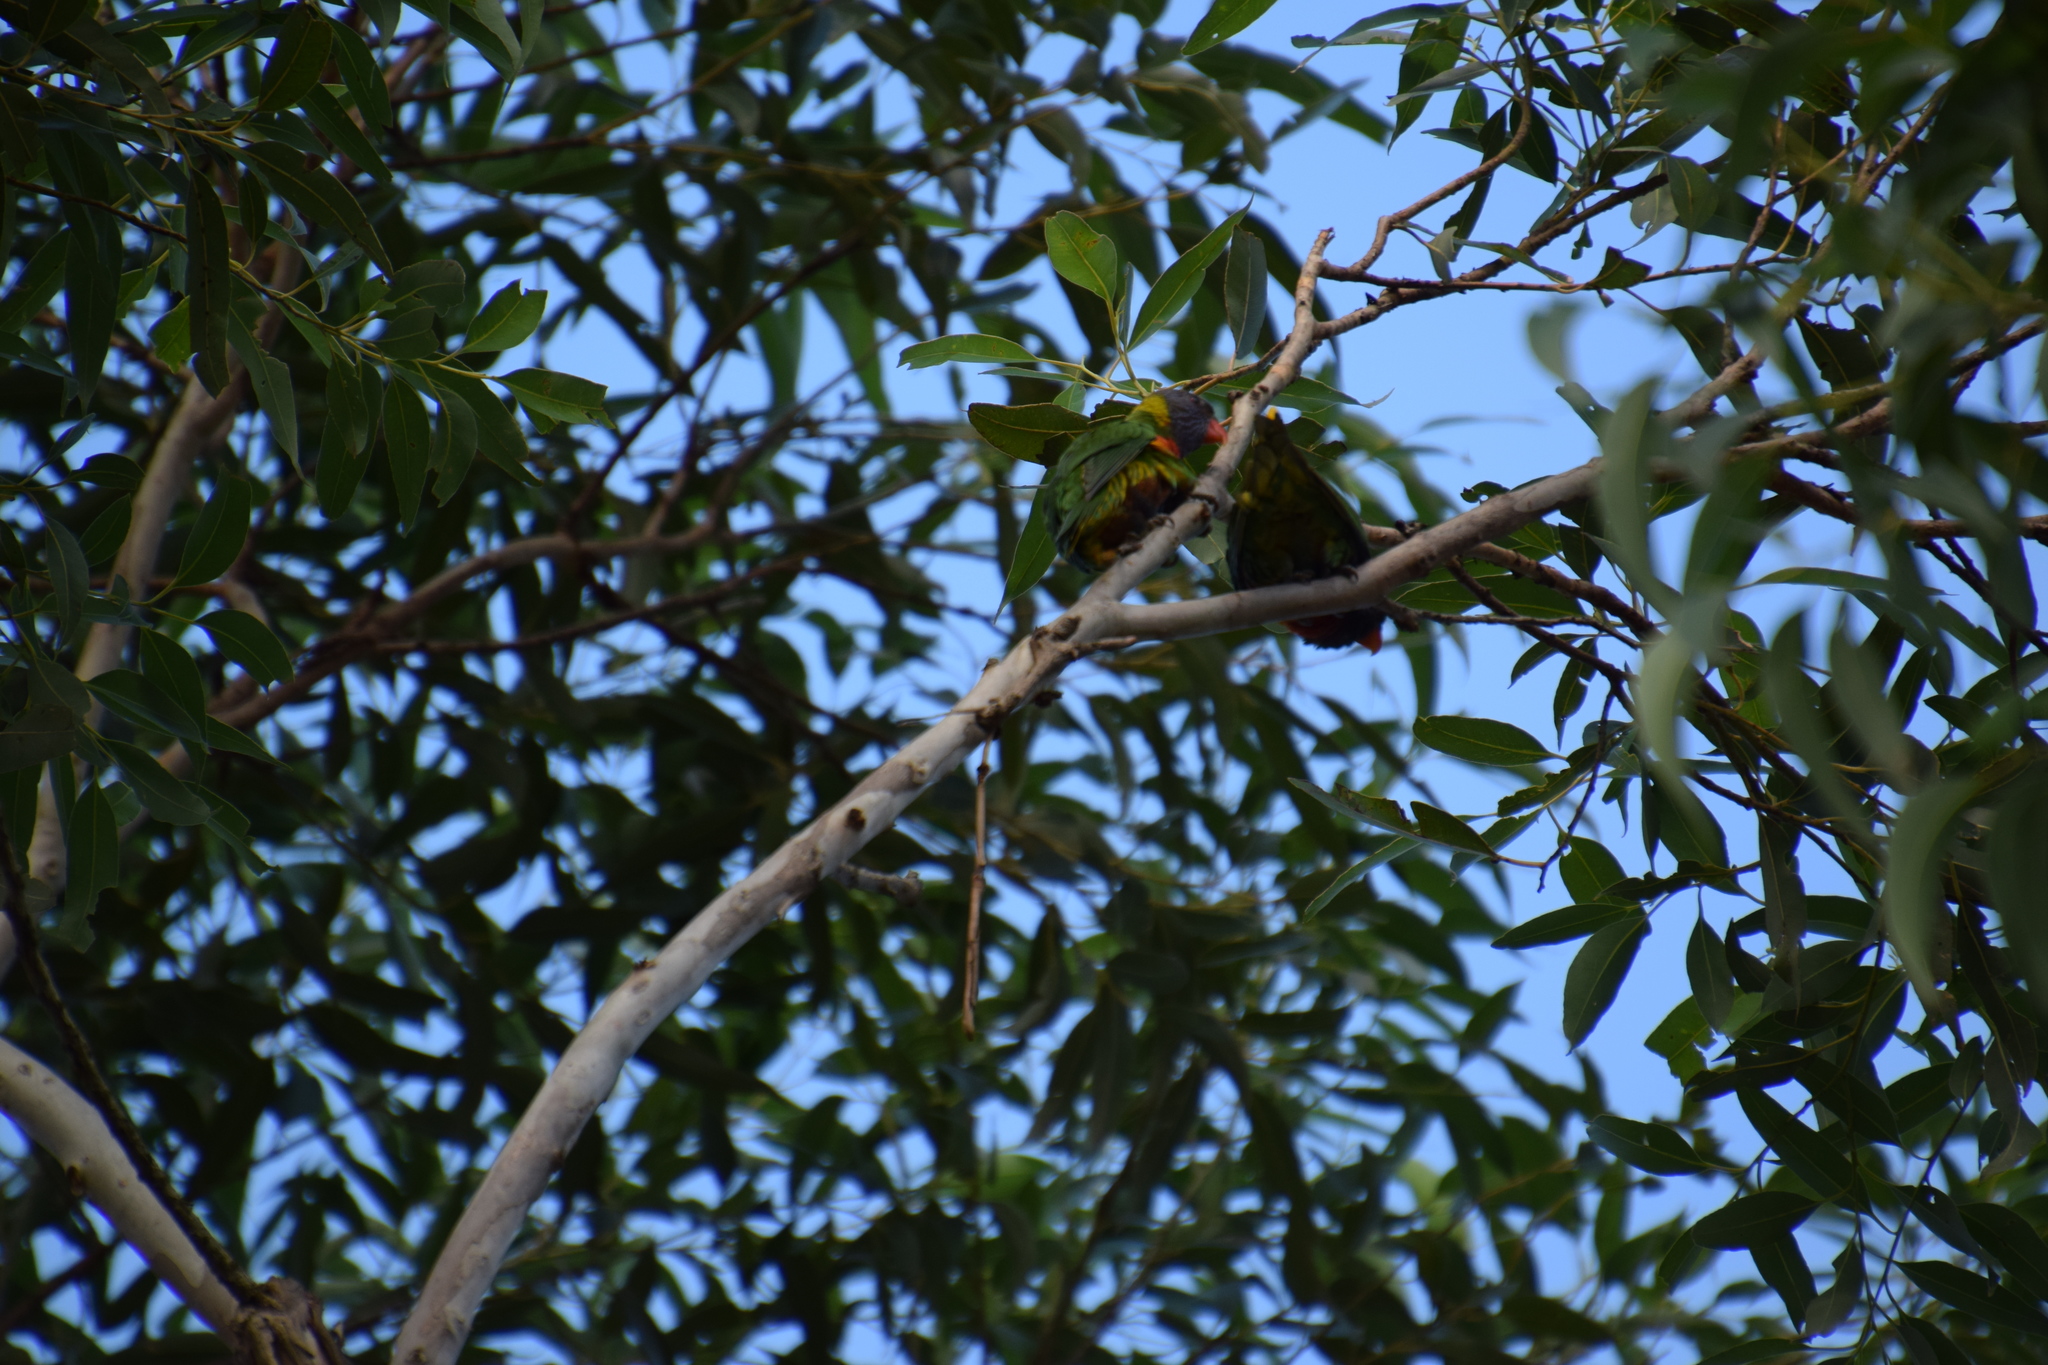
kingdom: Animalia
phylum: Chordata
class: Aves
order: Psittaciformes
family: Psittacidae
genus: Trichoglossus
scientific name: Trichoglossus haematodus
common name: Coconut lorikeet
